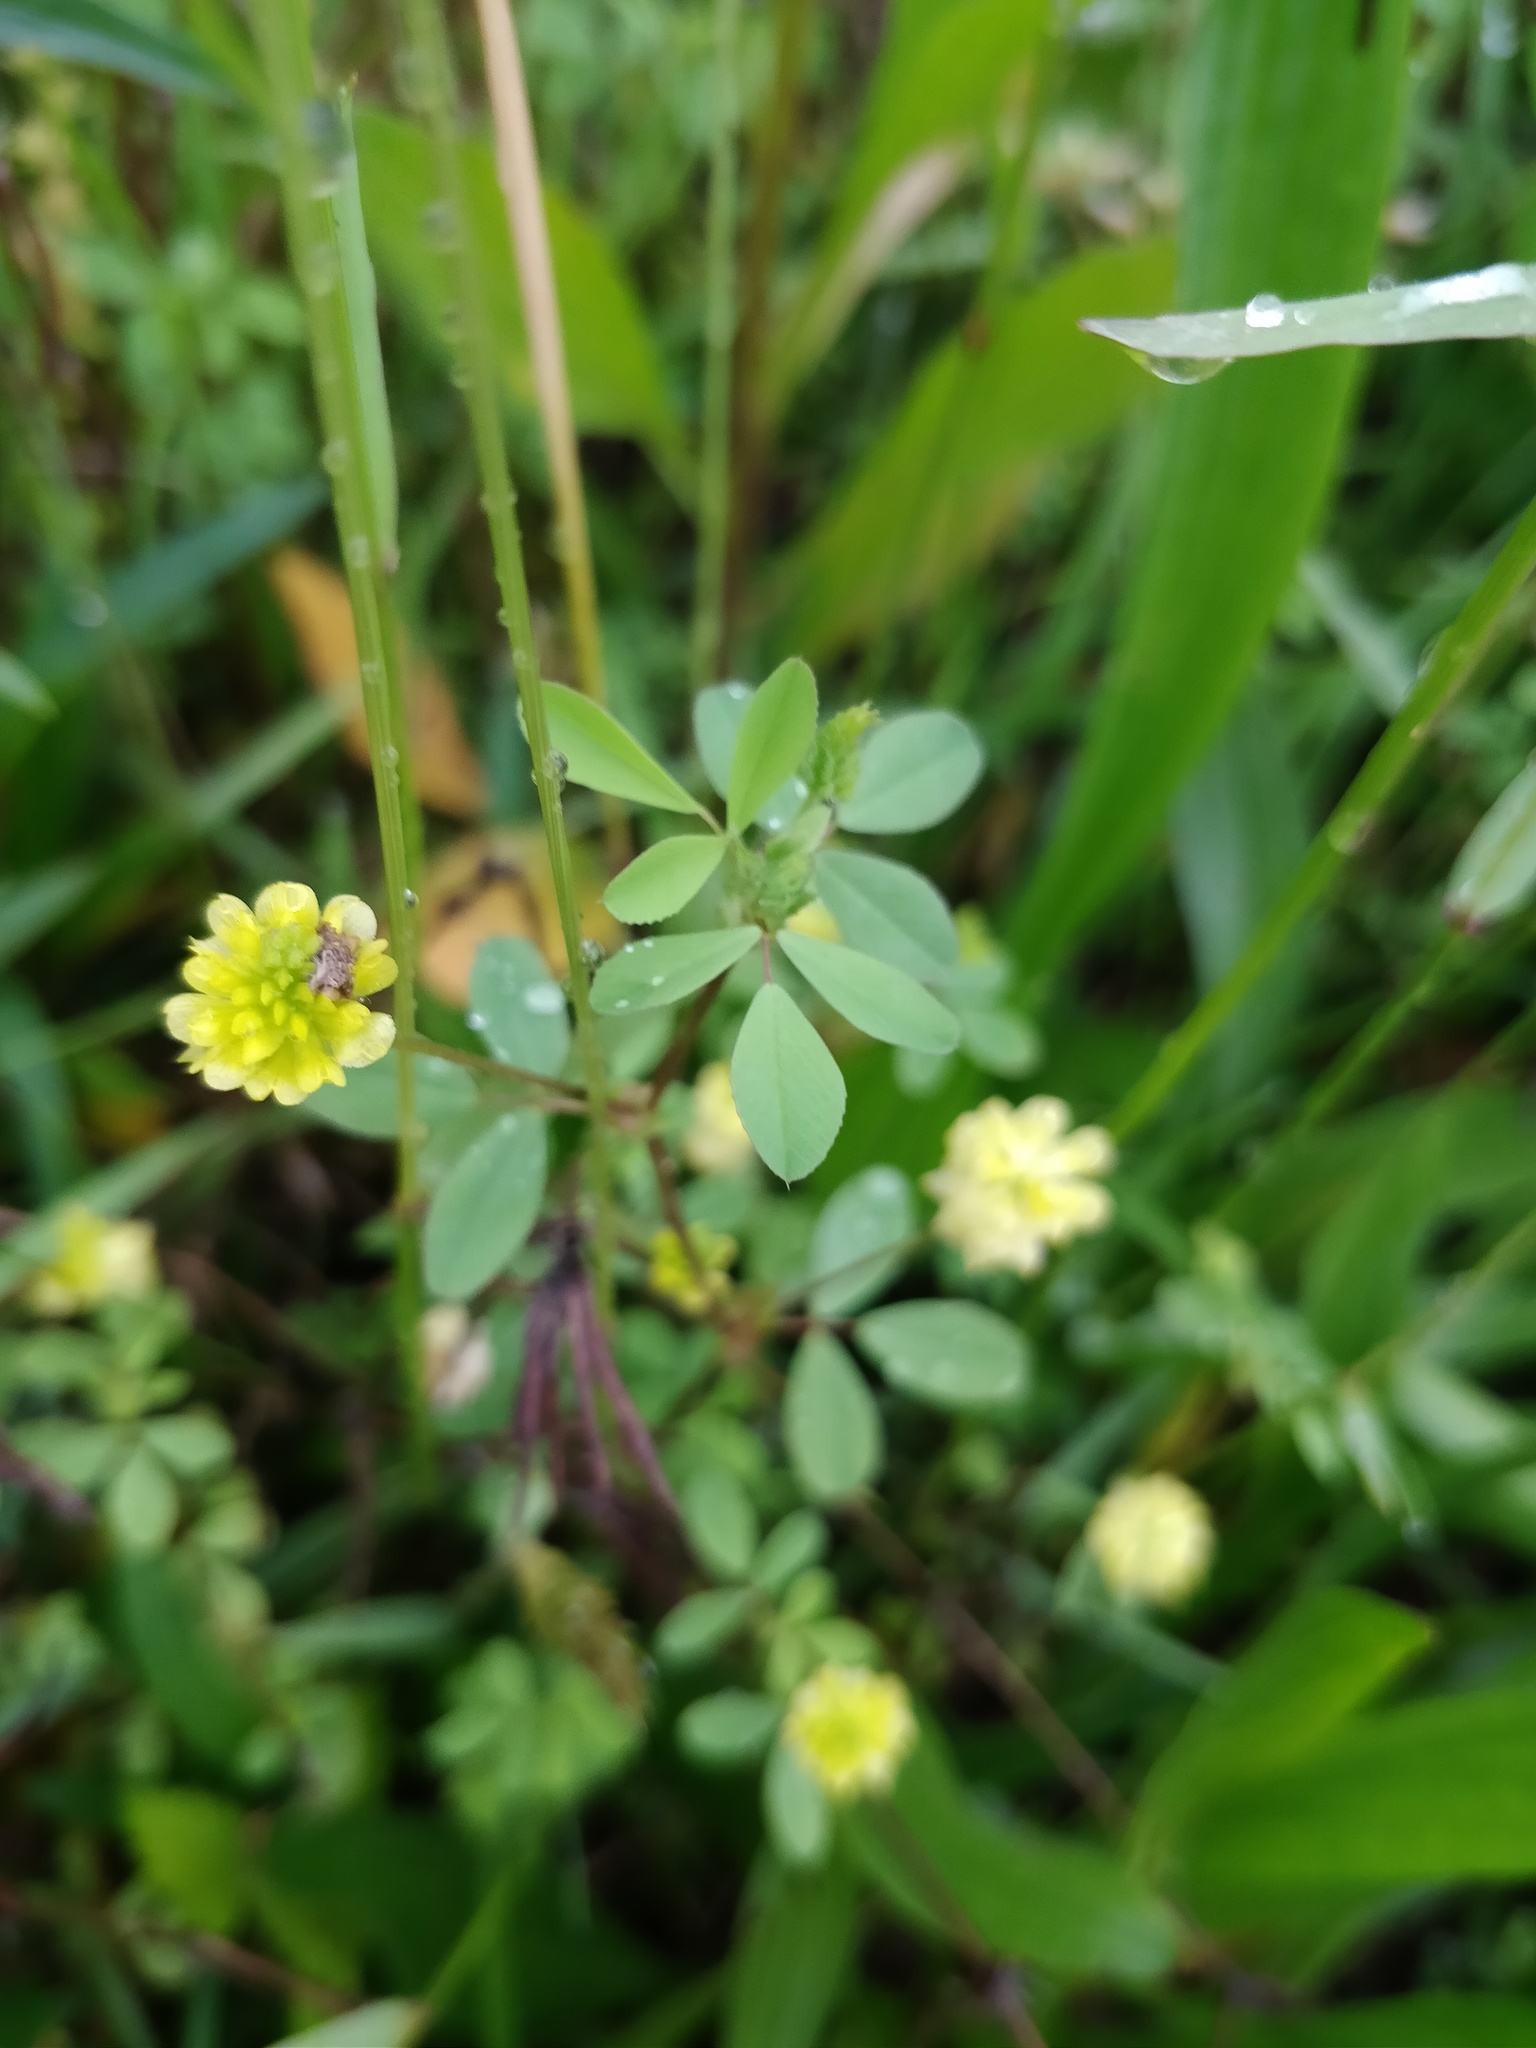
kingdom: Plantae
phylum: Tracheophyta
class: Magnoliopsida
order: Fabales
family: Fabaceae
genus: Trifolium
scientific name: Trifolium campestre
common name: Field clover
